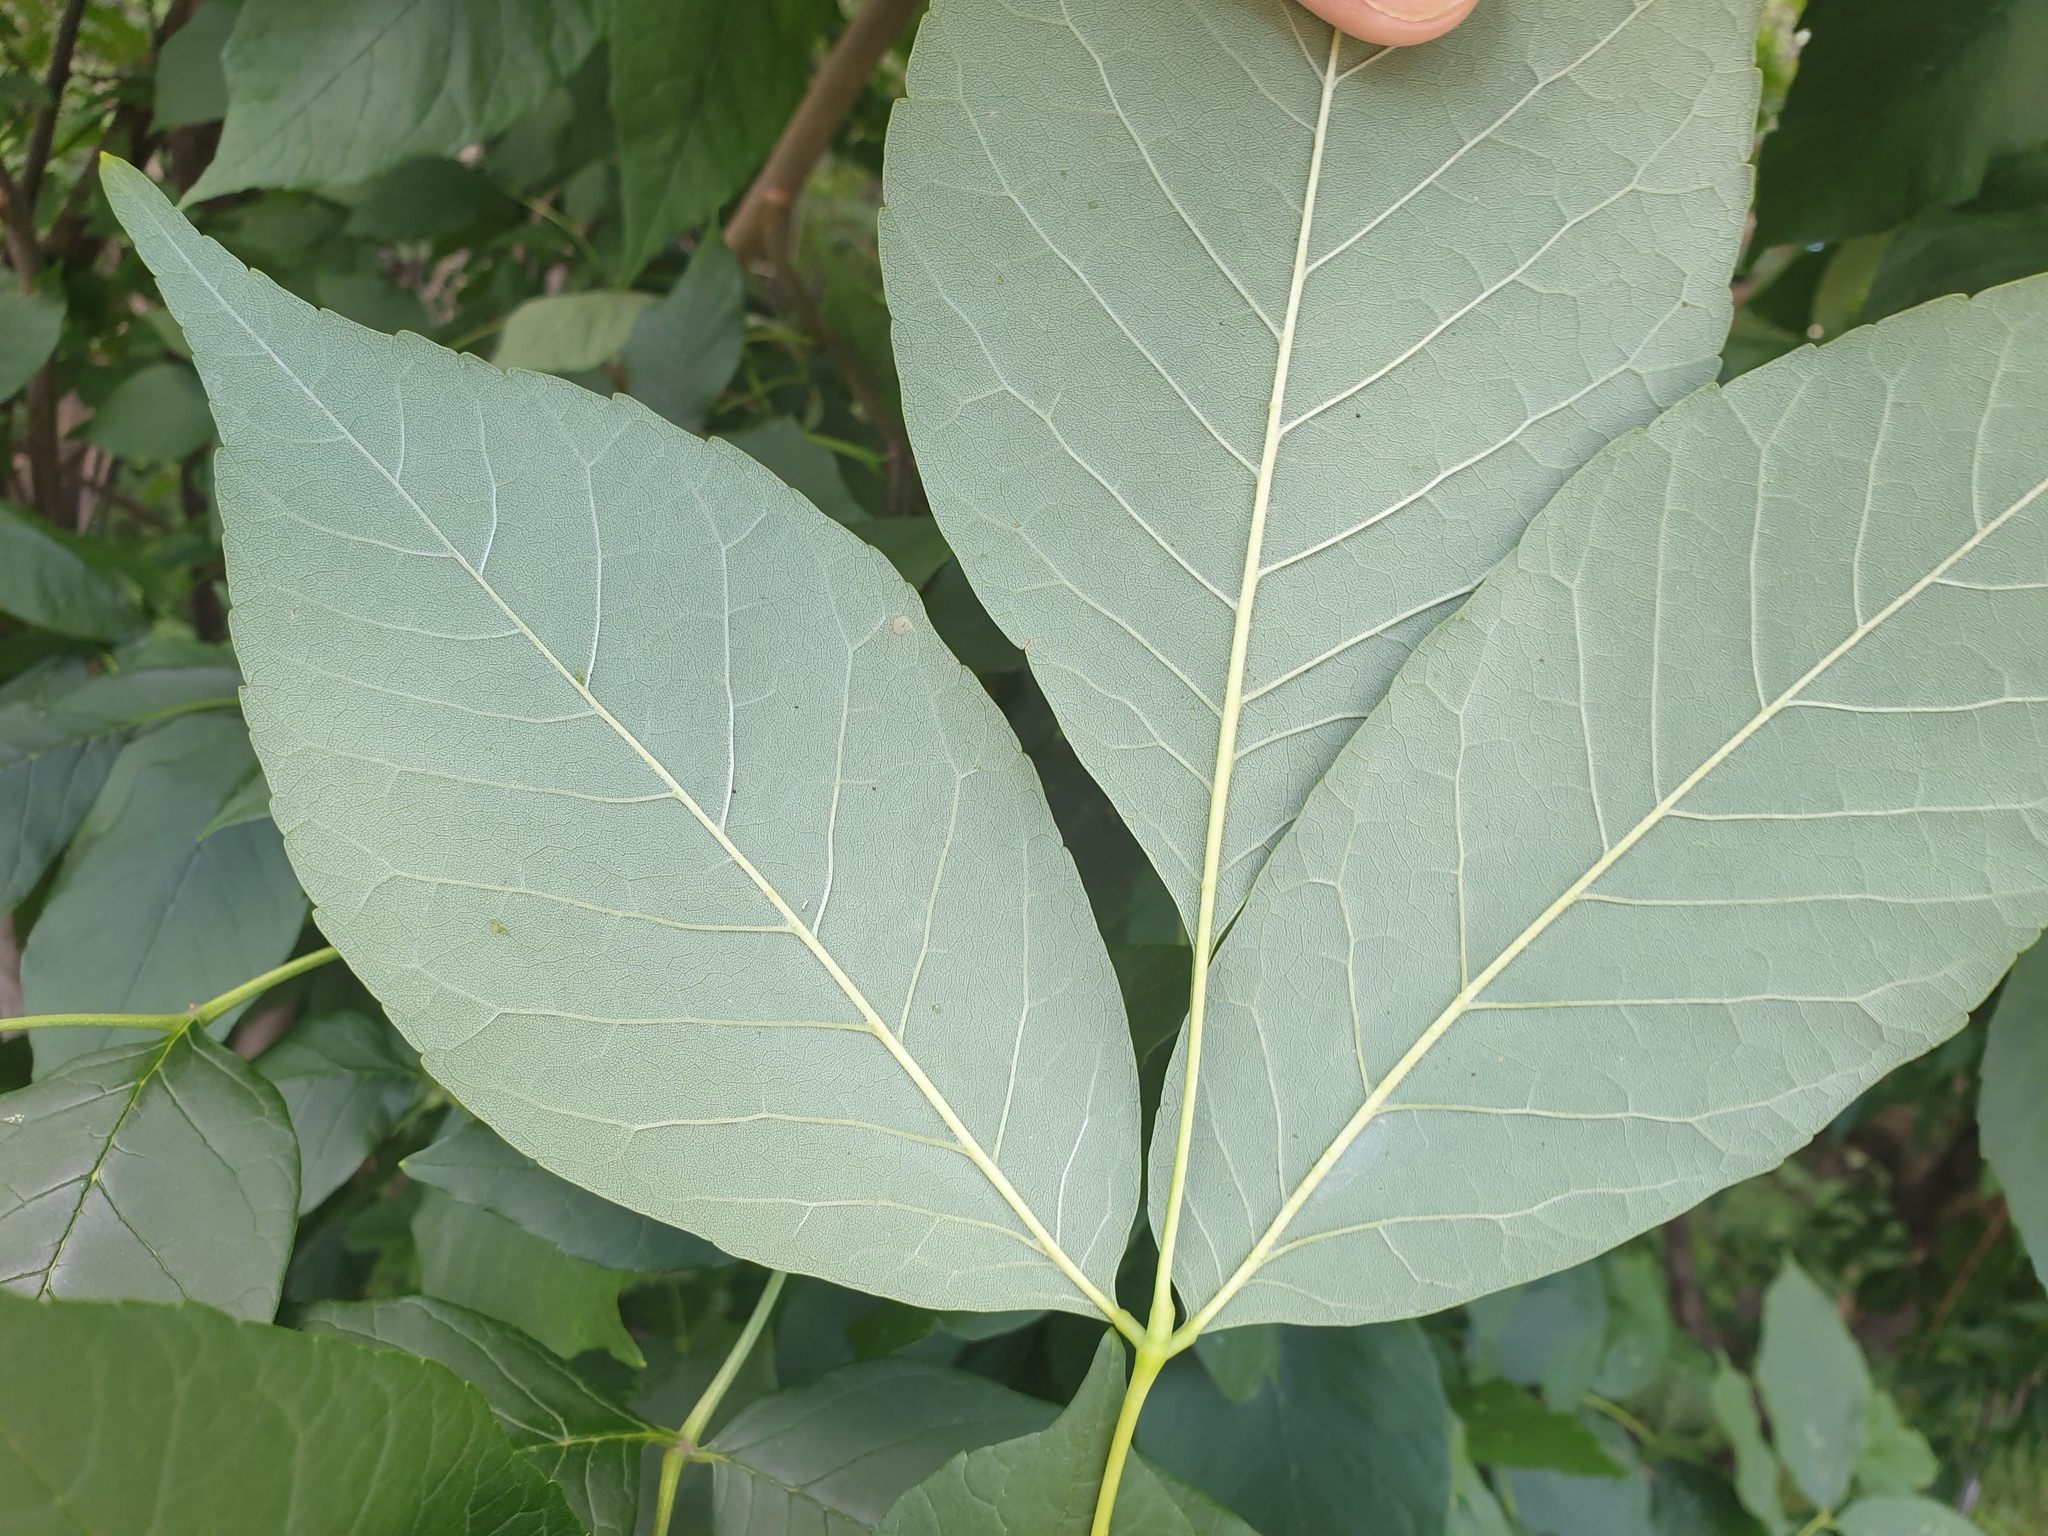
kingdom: Plantae
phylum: Tracheophyta
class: Magnoliopsida
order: Lamiales
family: Oleaceae
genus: Fraxinus
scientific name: Fraxinus americana
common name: White ash
